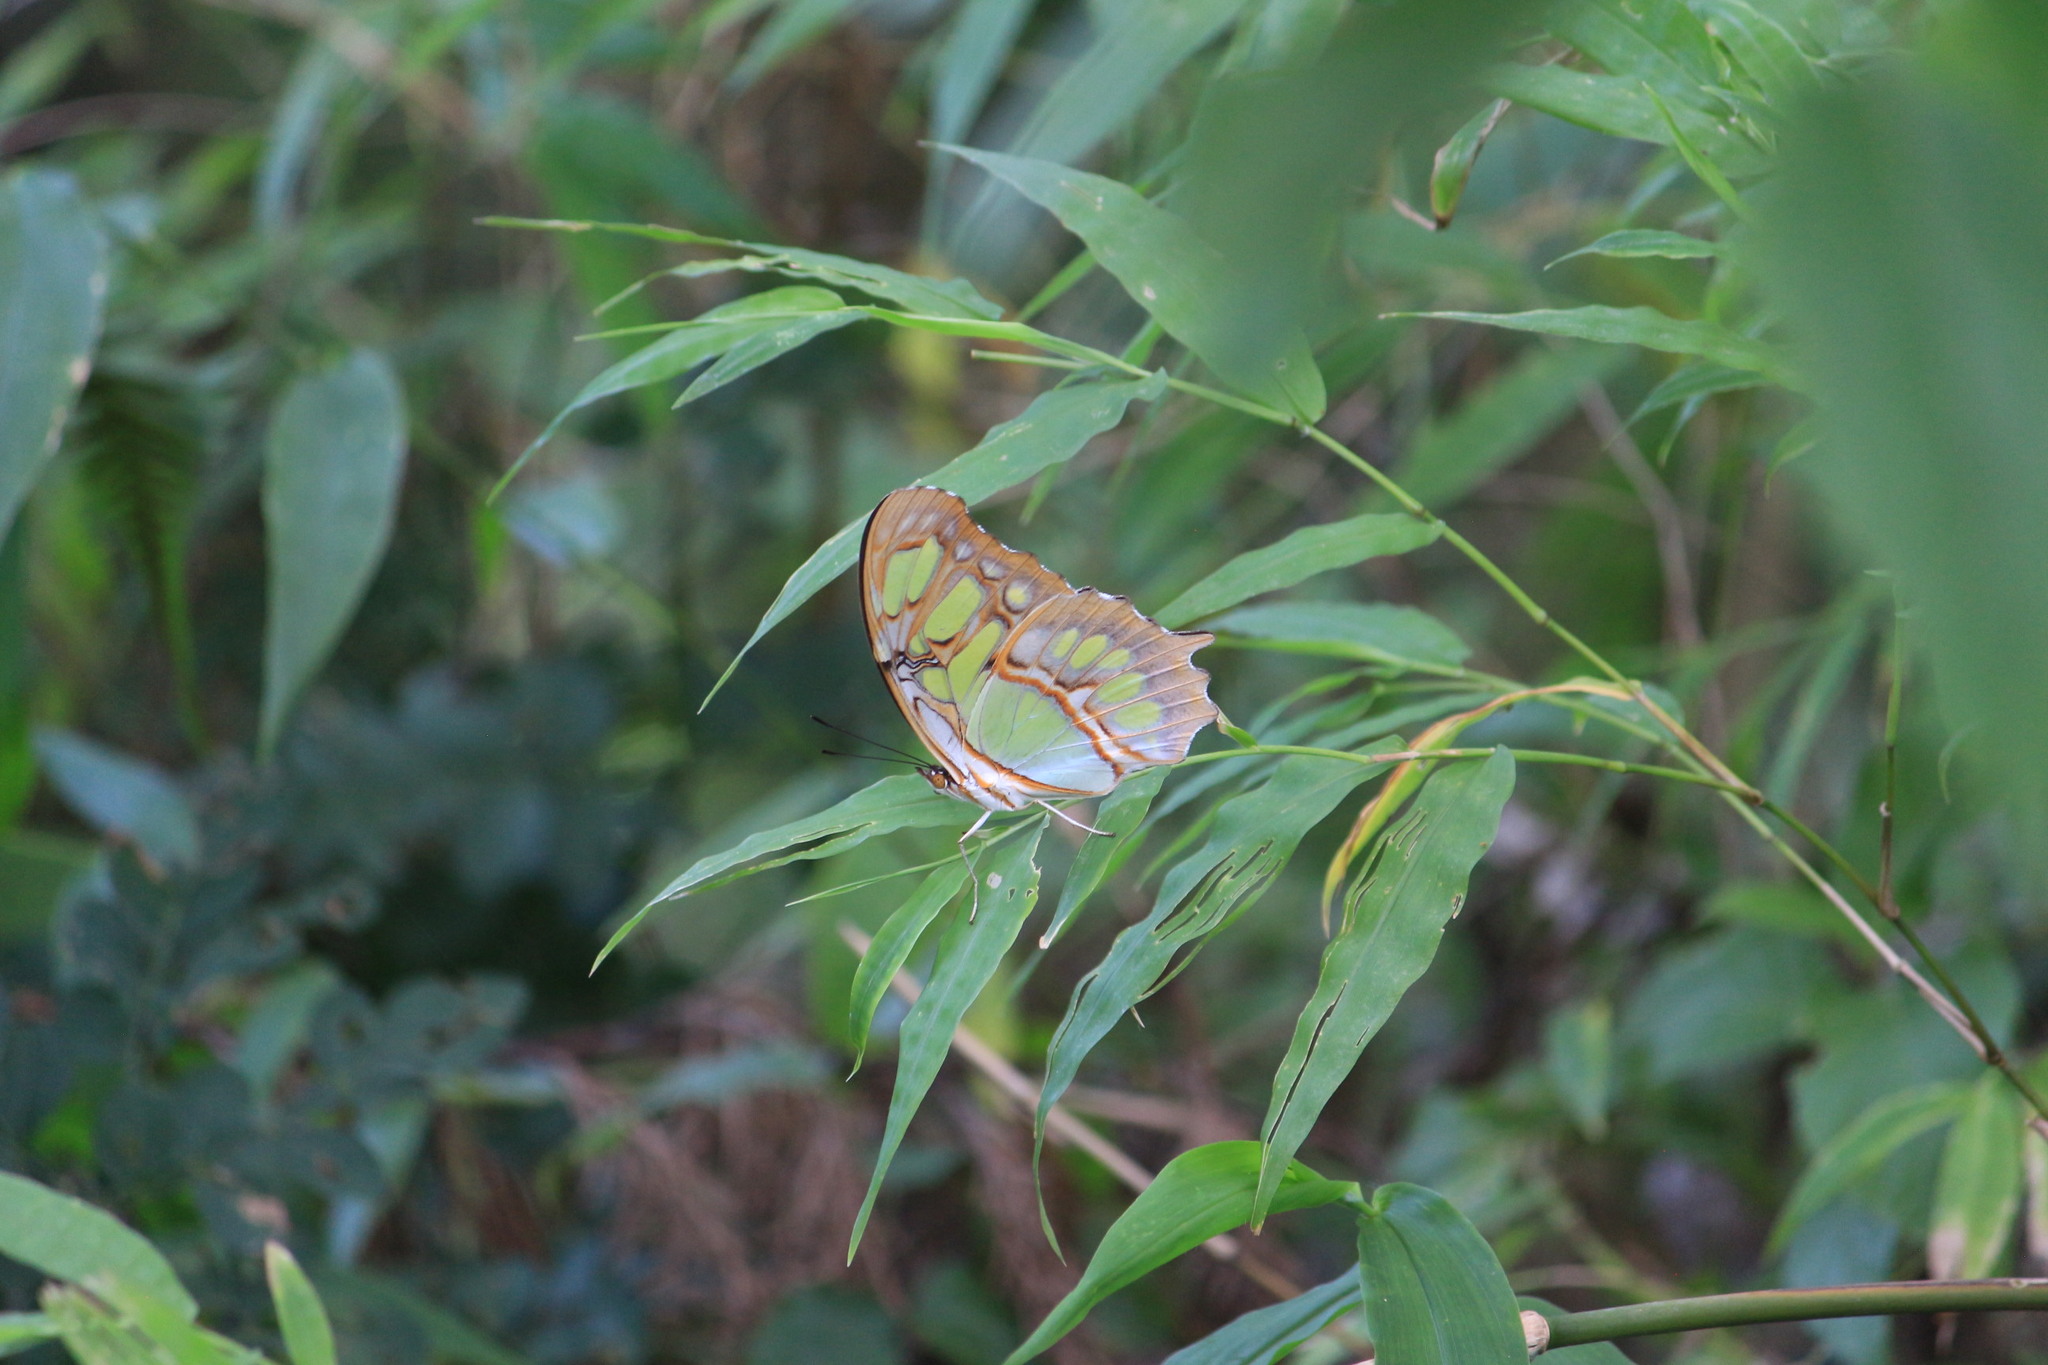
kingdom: Animalia
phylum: Arthropoda
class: Insecta
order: Lepidoptera
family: Nymphalidae
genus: Siproeta
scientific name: Siproeta stelenes
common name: Malachite
